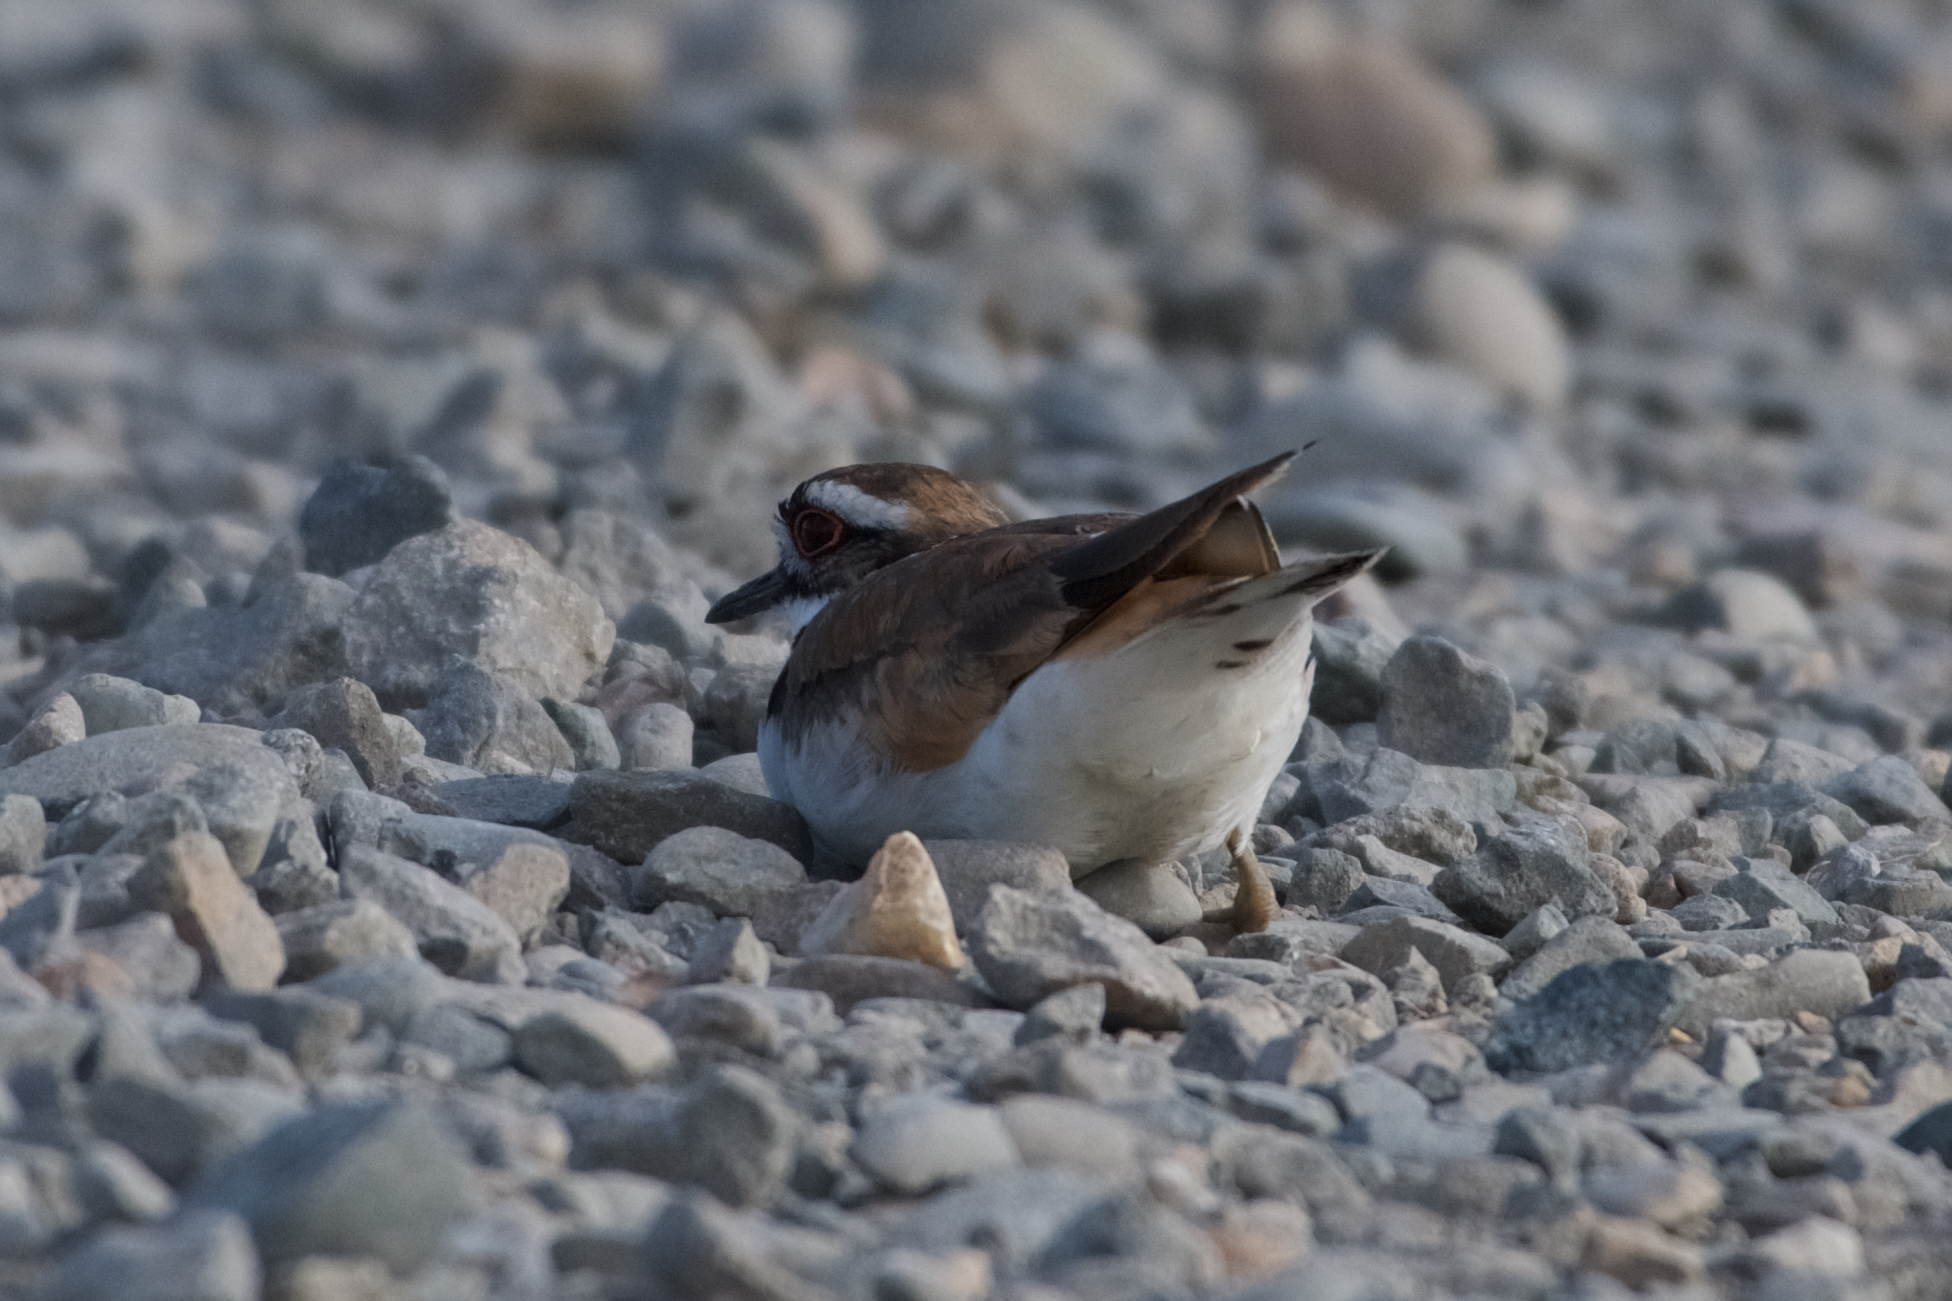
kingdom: Animalia
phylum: Chordata
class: Aves
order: Charadriiformes
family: Charadriidae
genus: Charadrius
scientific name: Charadrius vociferus
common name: Killdeer
